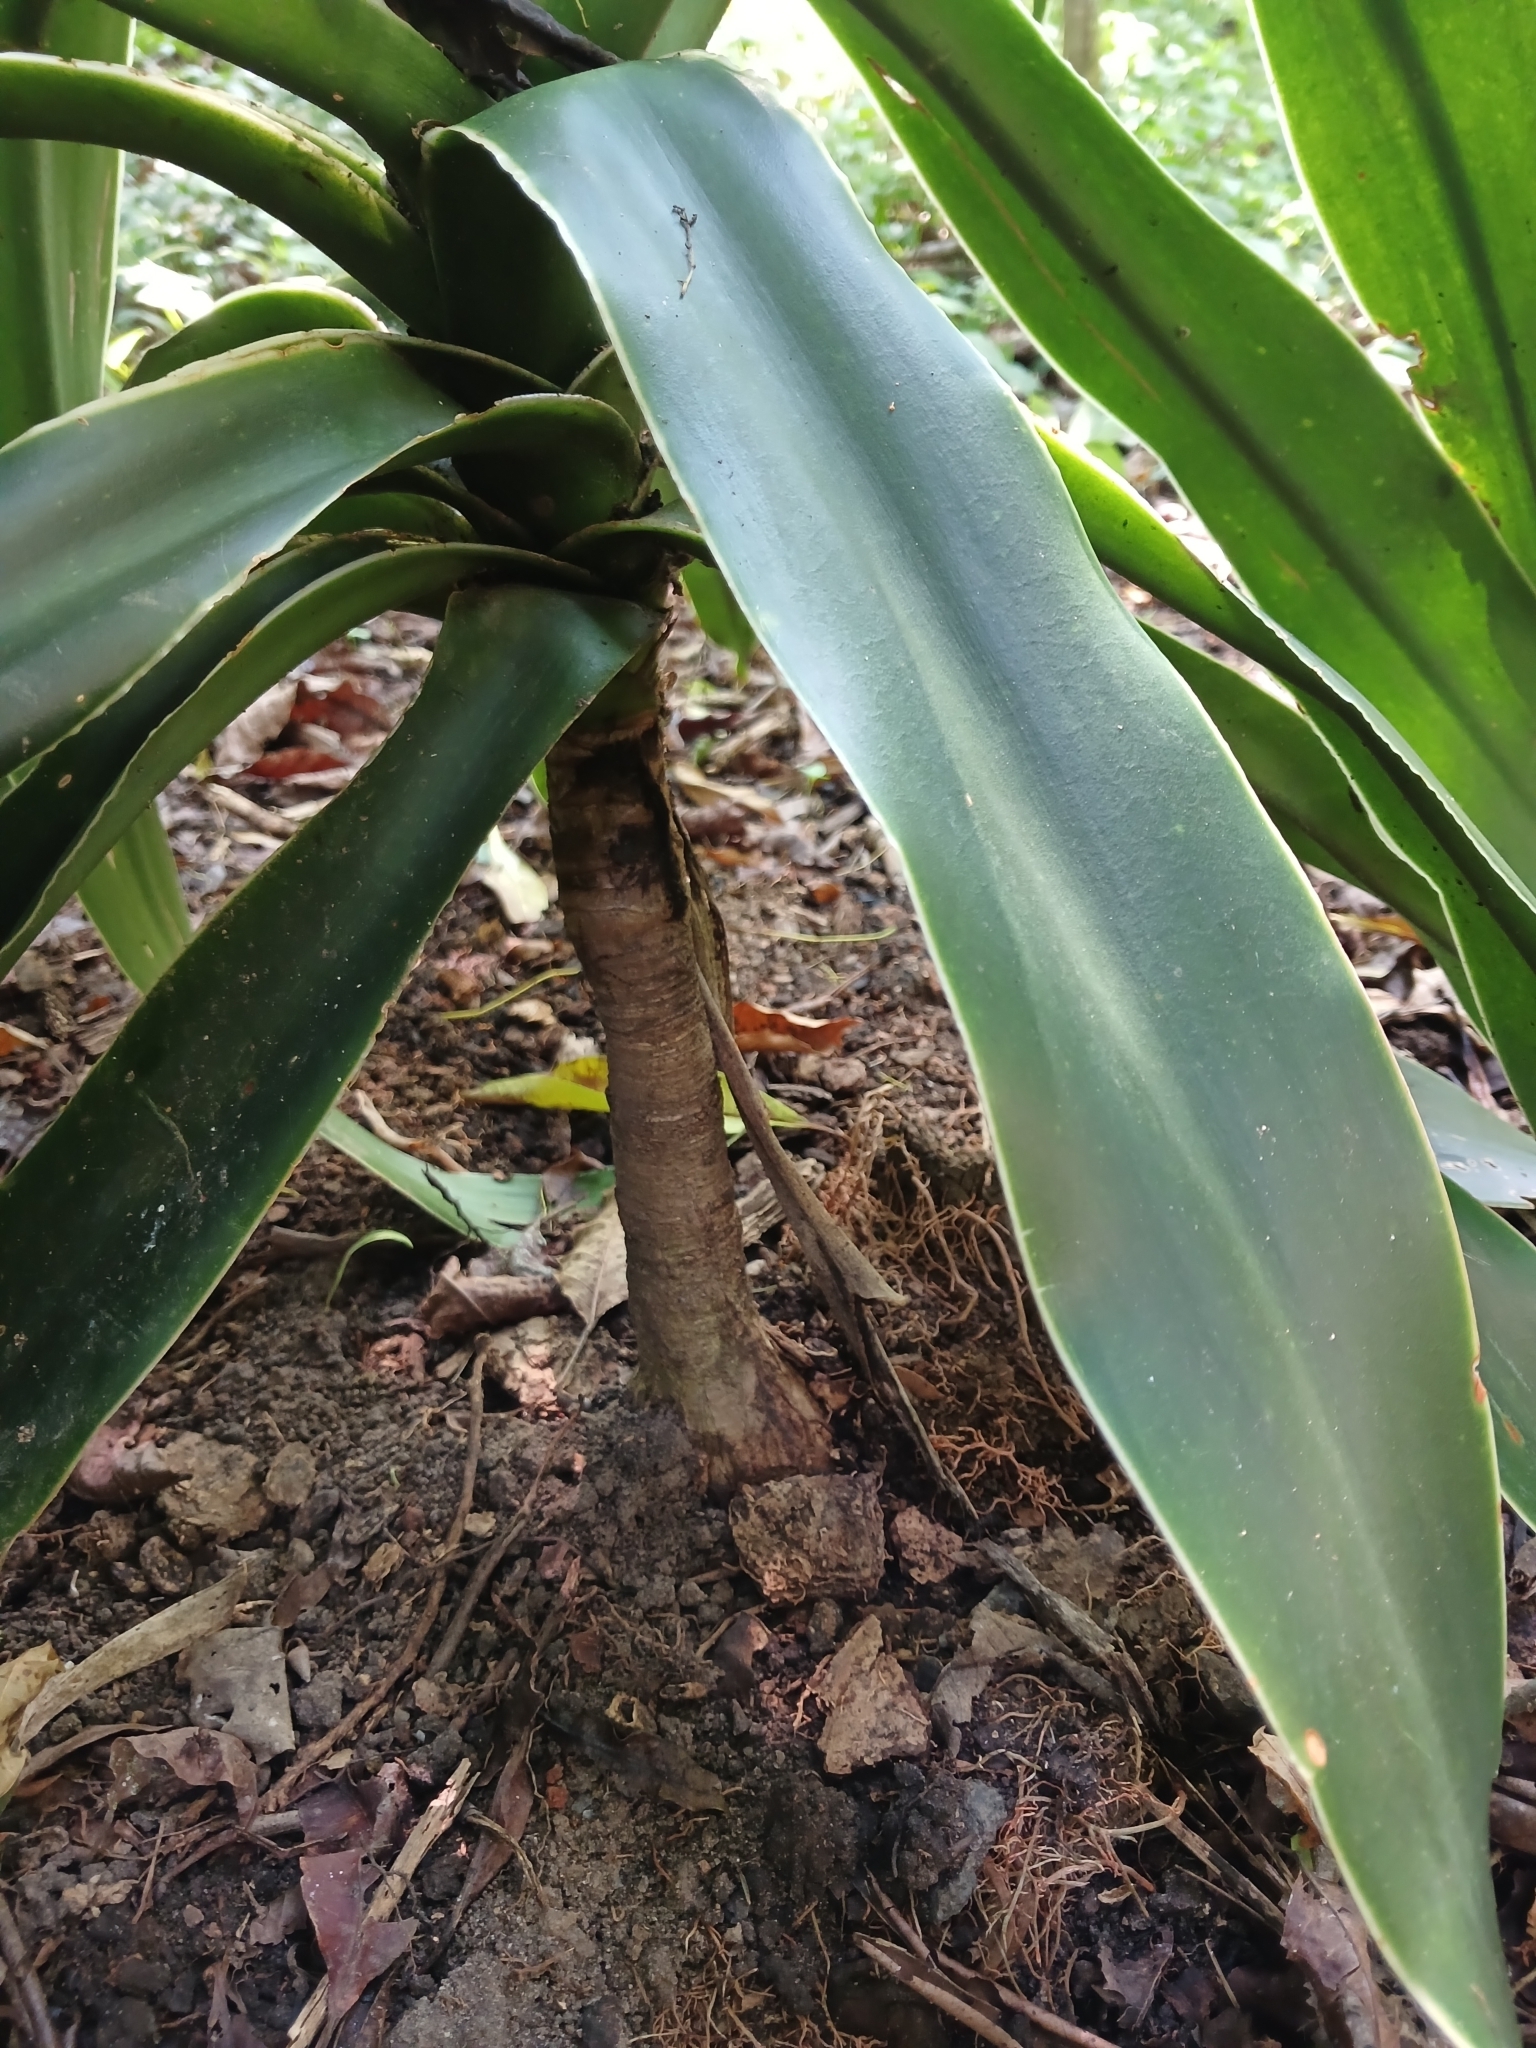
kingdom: Plantae
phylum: Tracheophyta
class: Liliopsida
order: Asparagales
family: Asparagaceae
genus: Dracaena
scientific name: Dracaena aletriformis
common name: Large-leaved dragon tree
